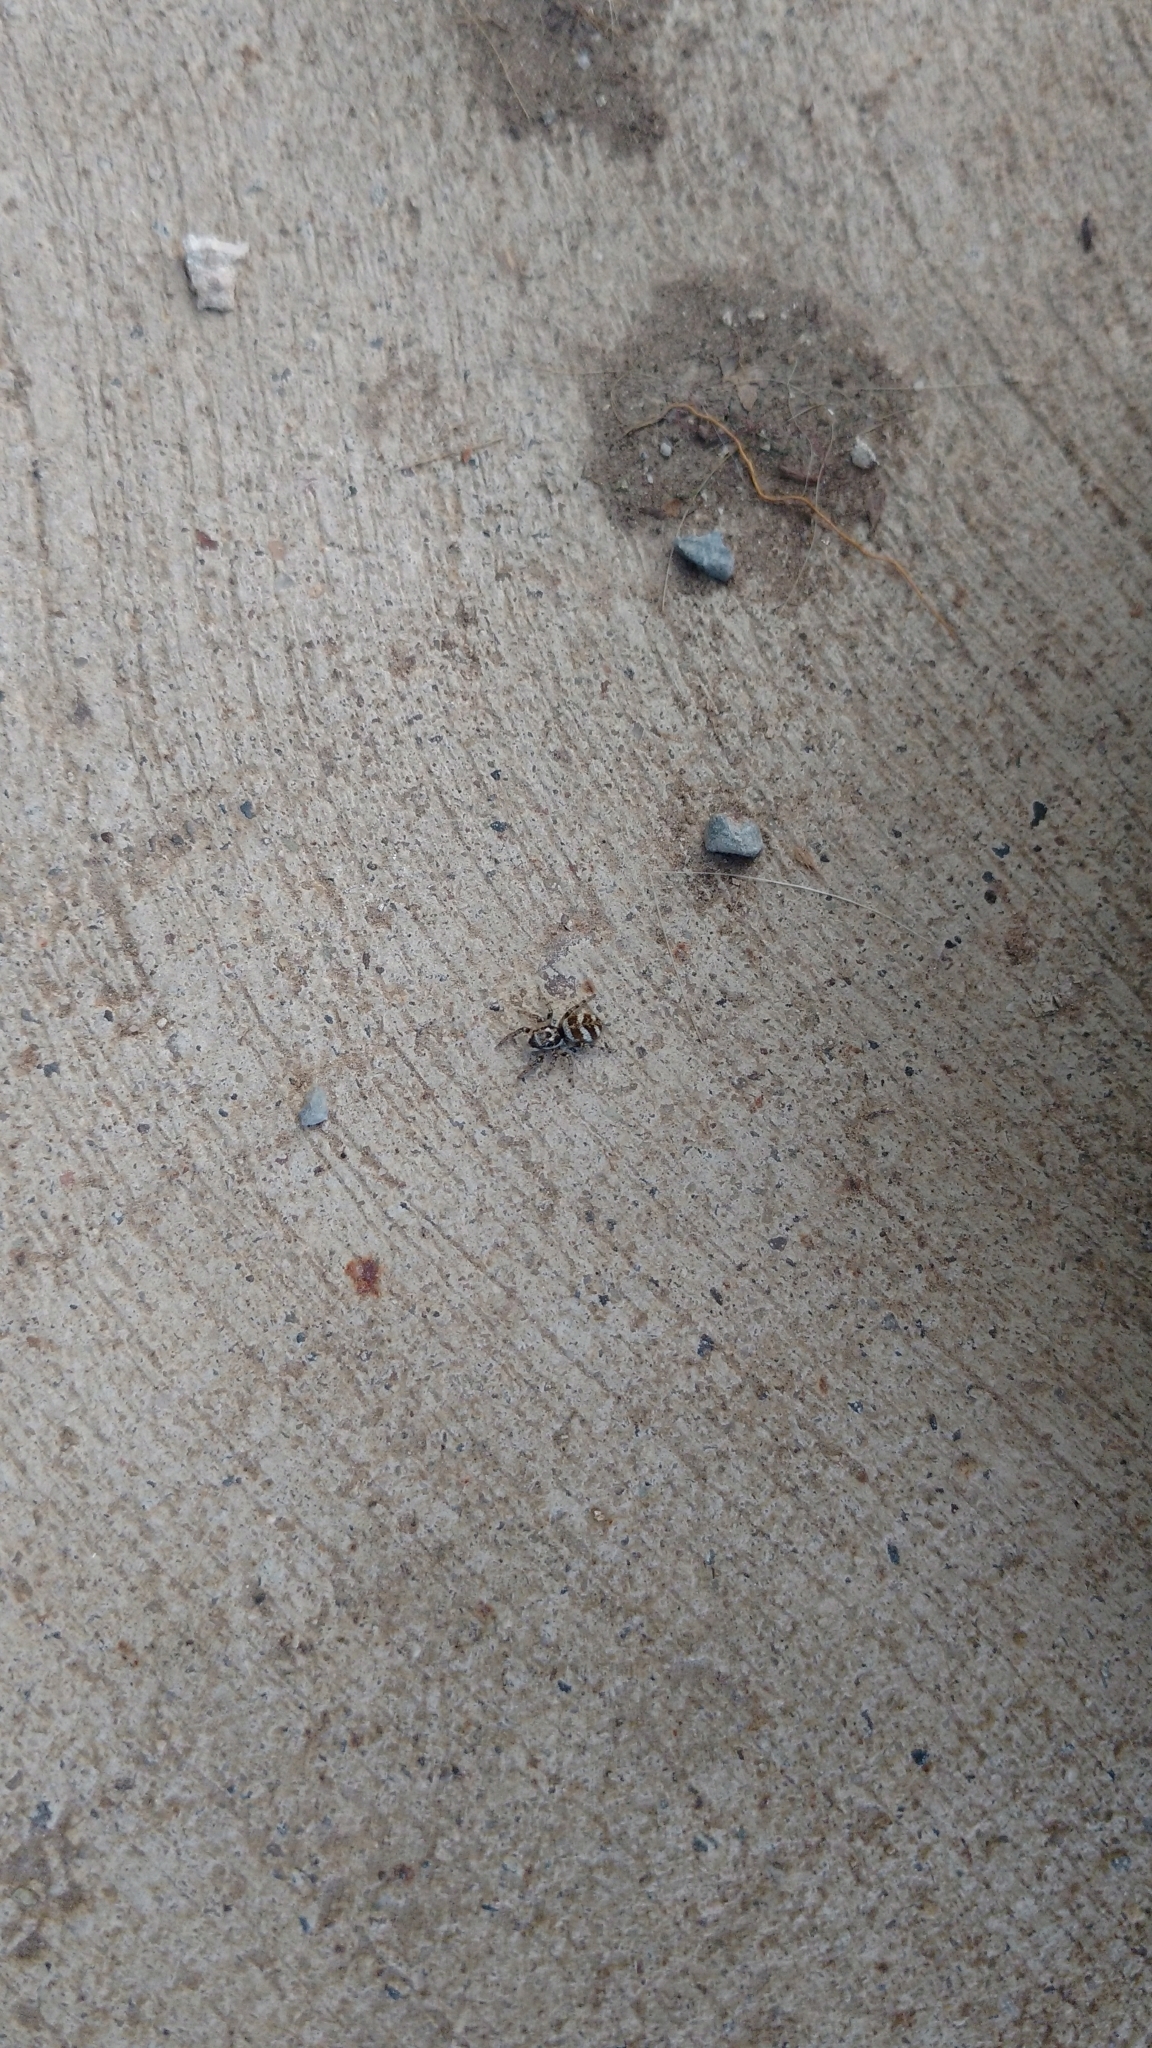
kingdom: Animalia
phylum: Arthropoda
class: Arachnida
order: Araneae
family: Salticidae
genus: Salticus
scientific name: Salticus scenicus
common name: Zebra jumper
